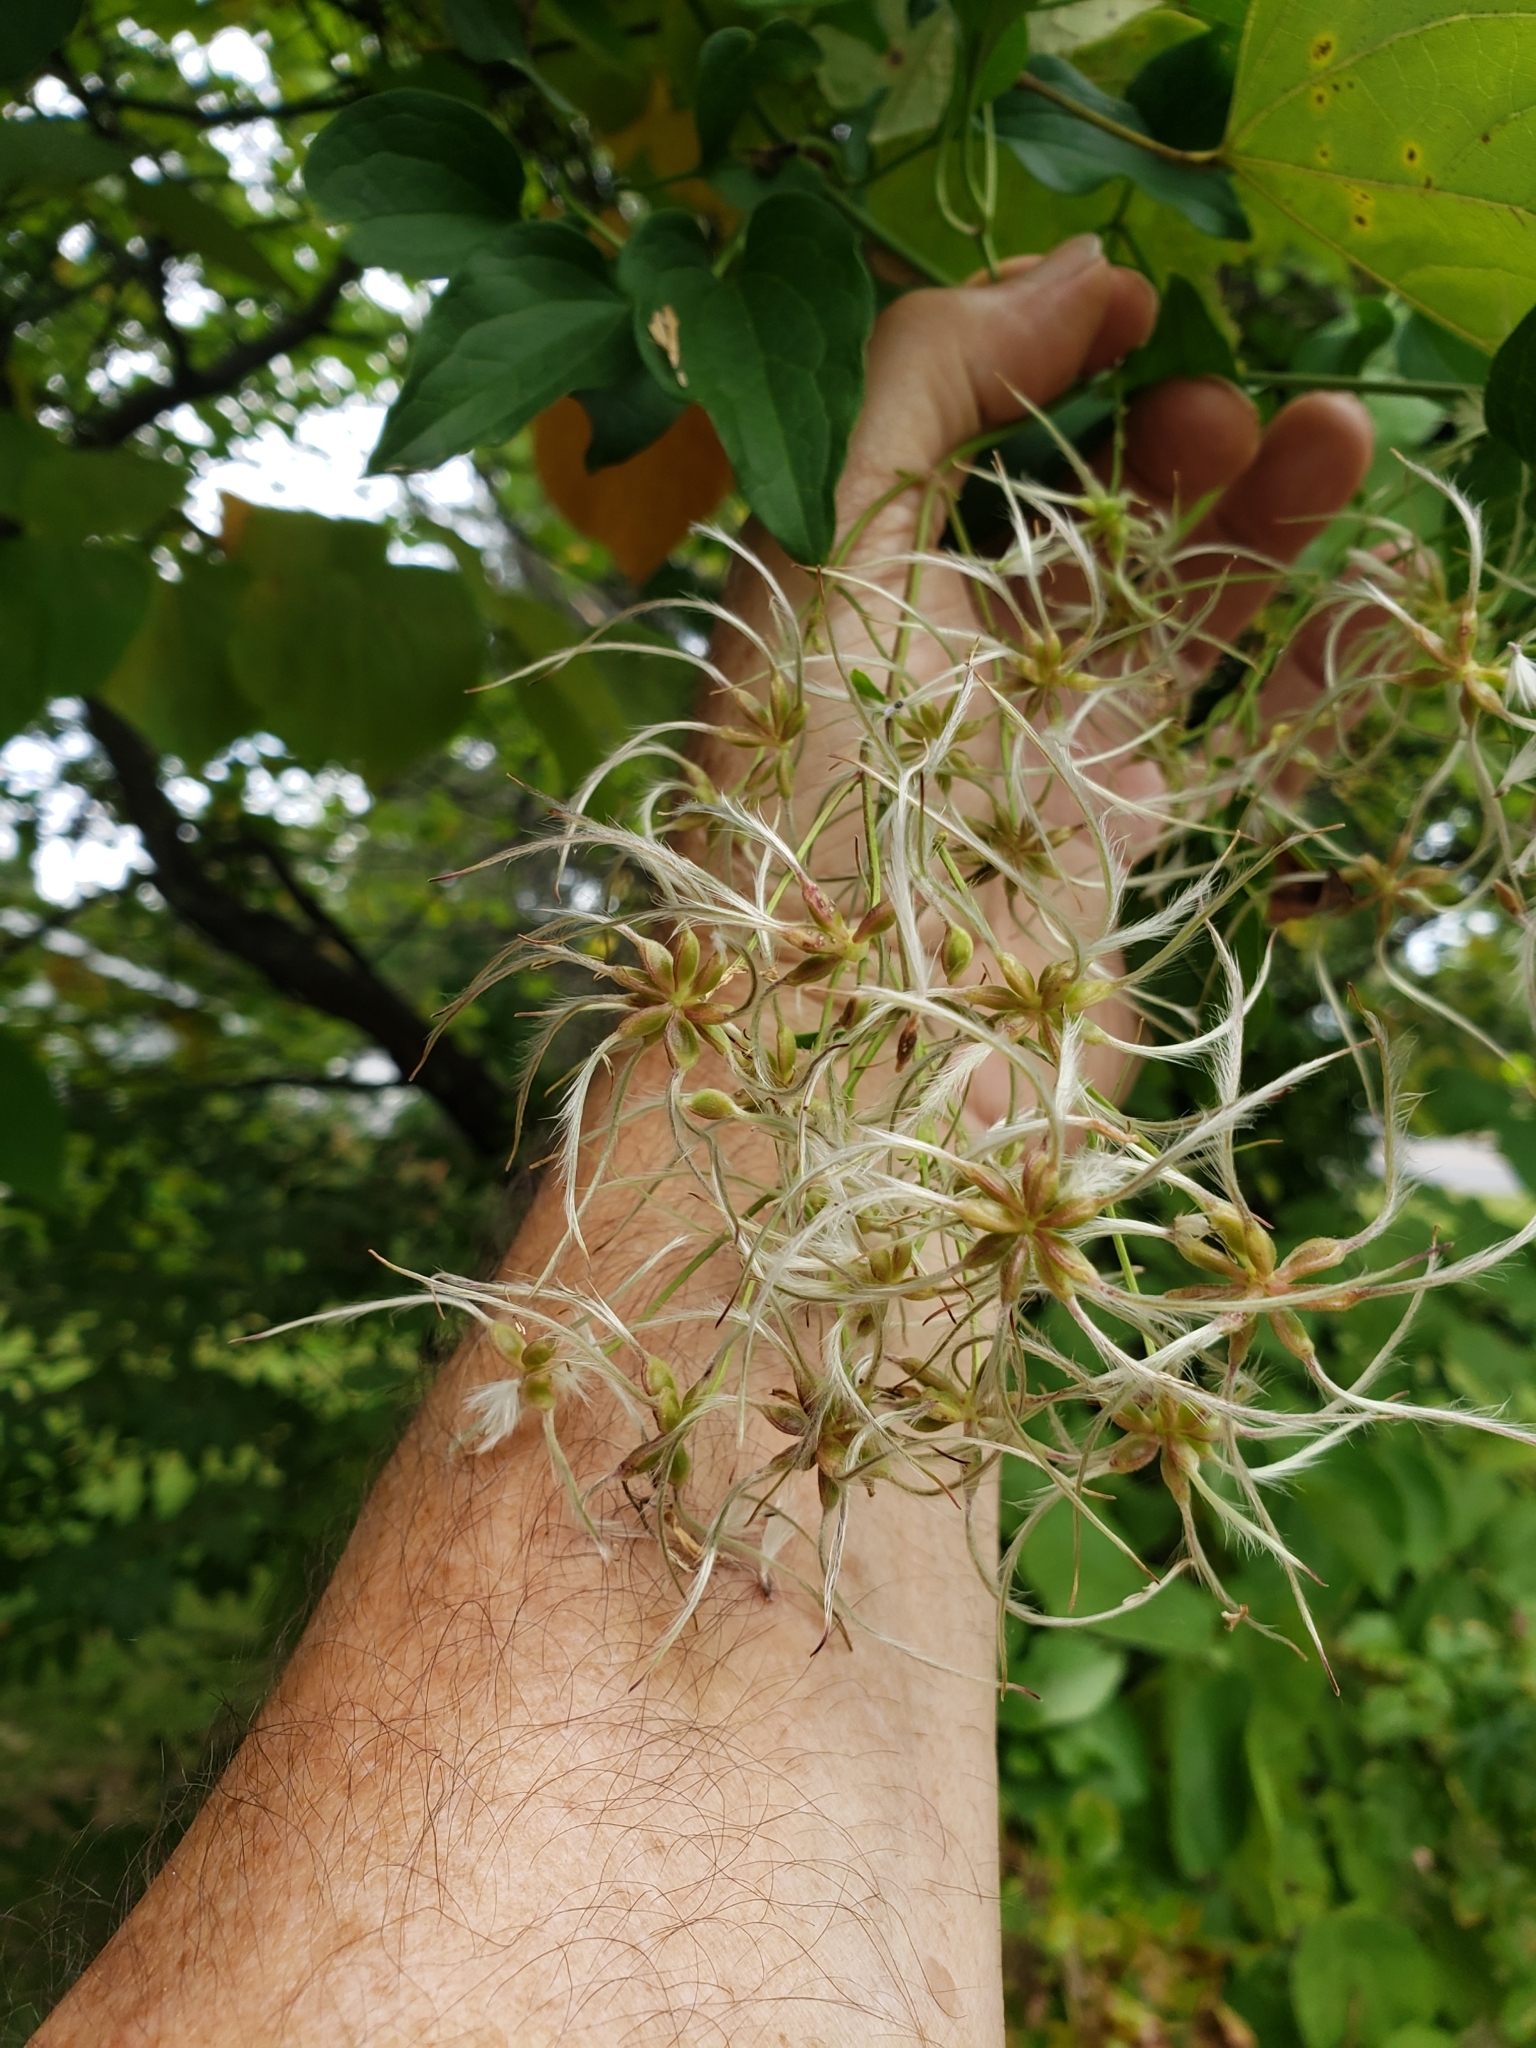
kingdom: Plantae
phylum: Tracheophyta
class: Magnoliopsida
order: Ranunculales
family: Ranunculaceae
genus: Clematis
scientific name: Clematis terniflora
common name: Sweet autumn clematis
